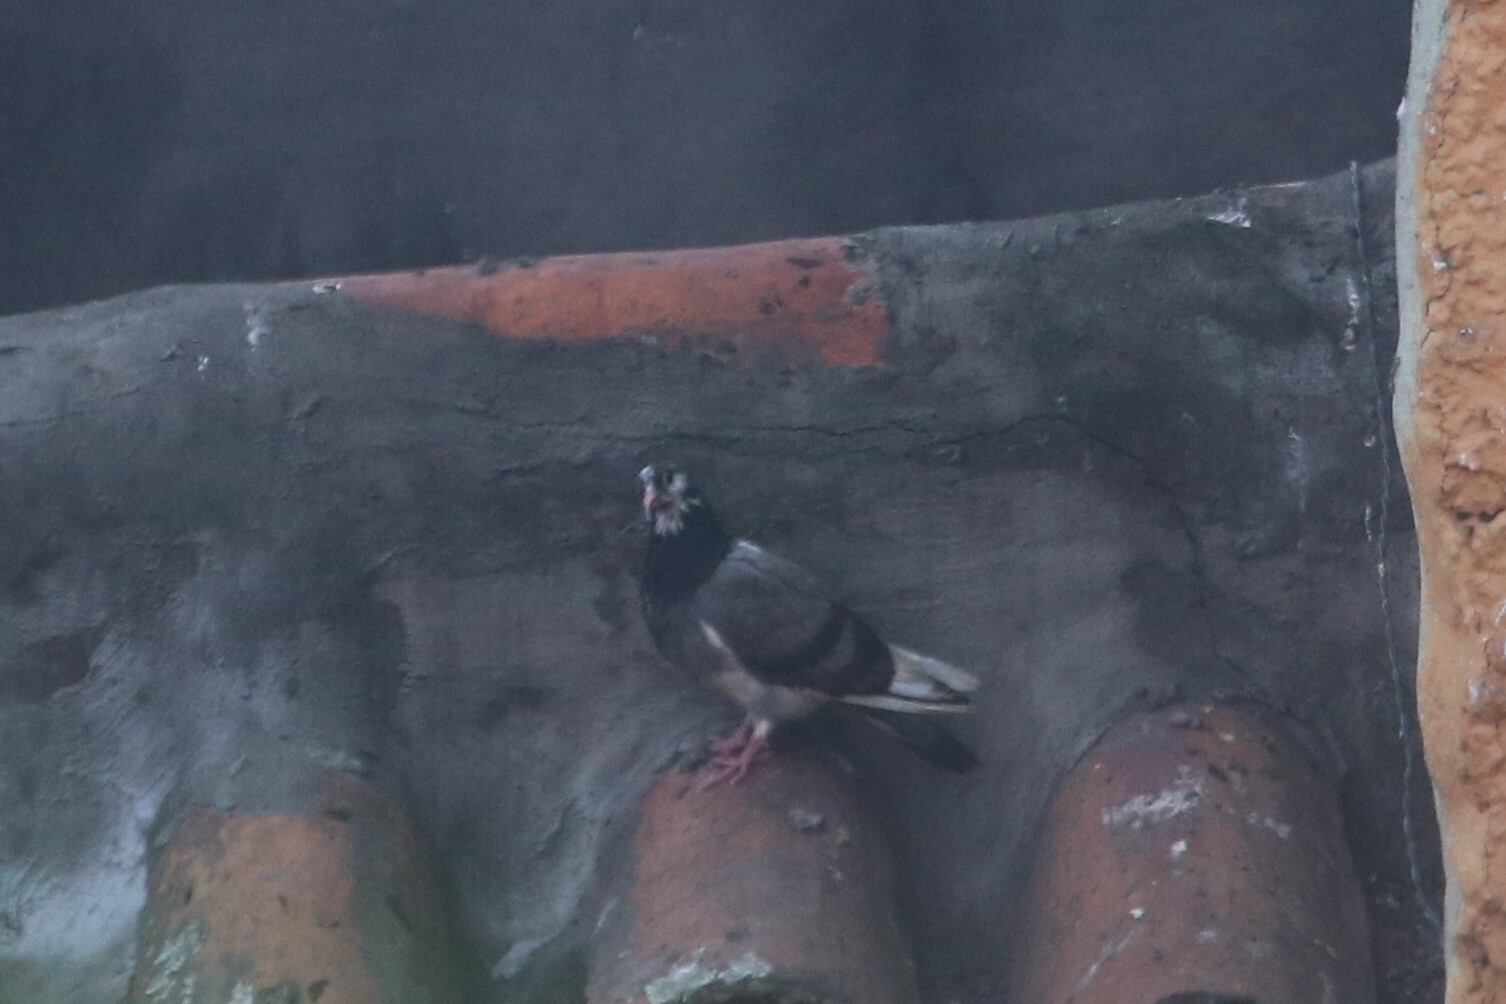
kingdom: Animalia
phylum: Chordata
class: Aves
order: Columbiformes
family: Columbidae
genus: Columba
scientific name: Columba livia
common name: Rock pigeon
